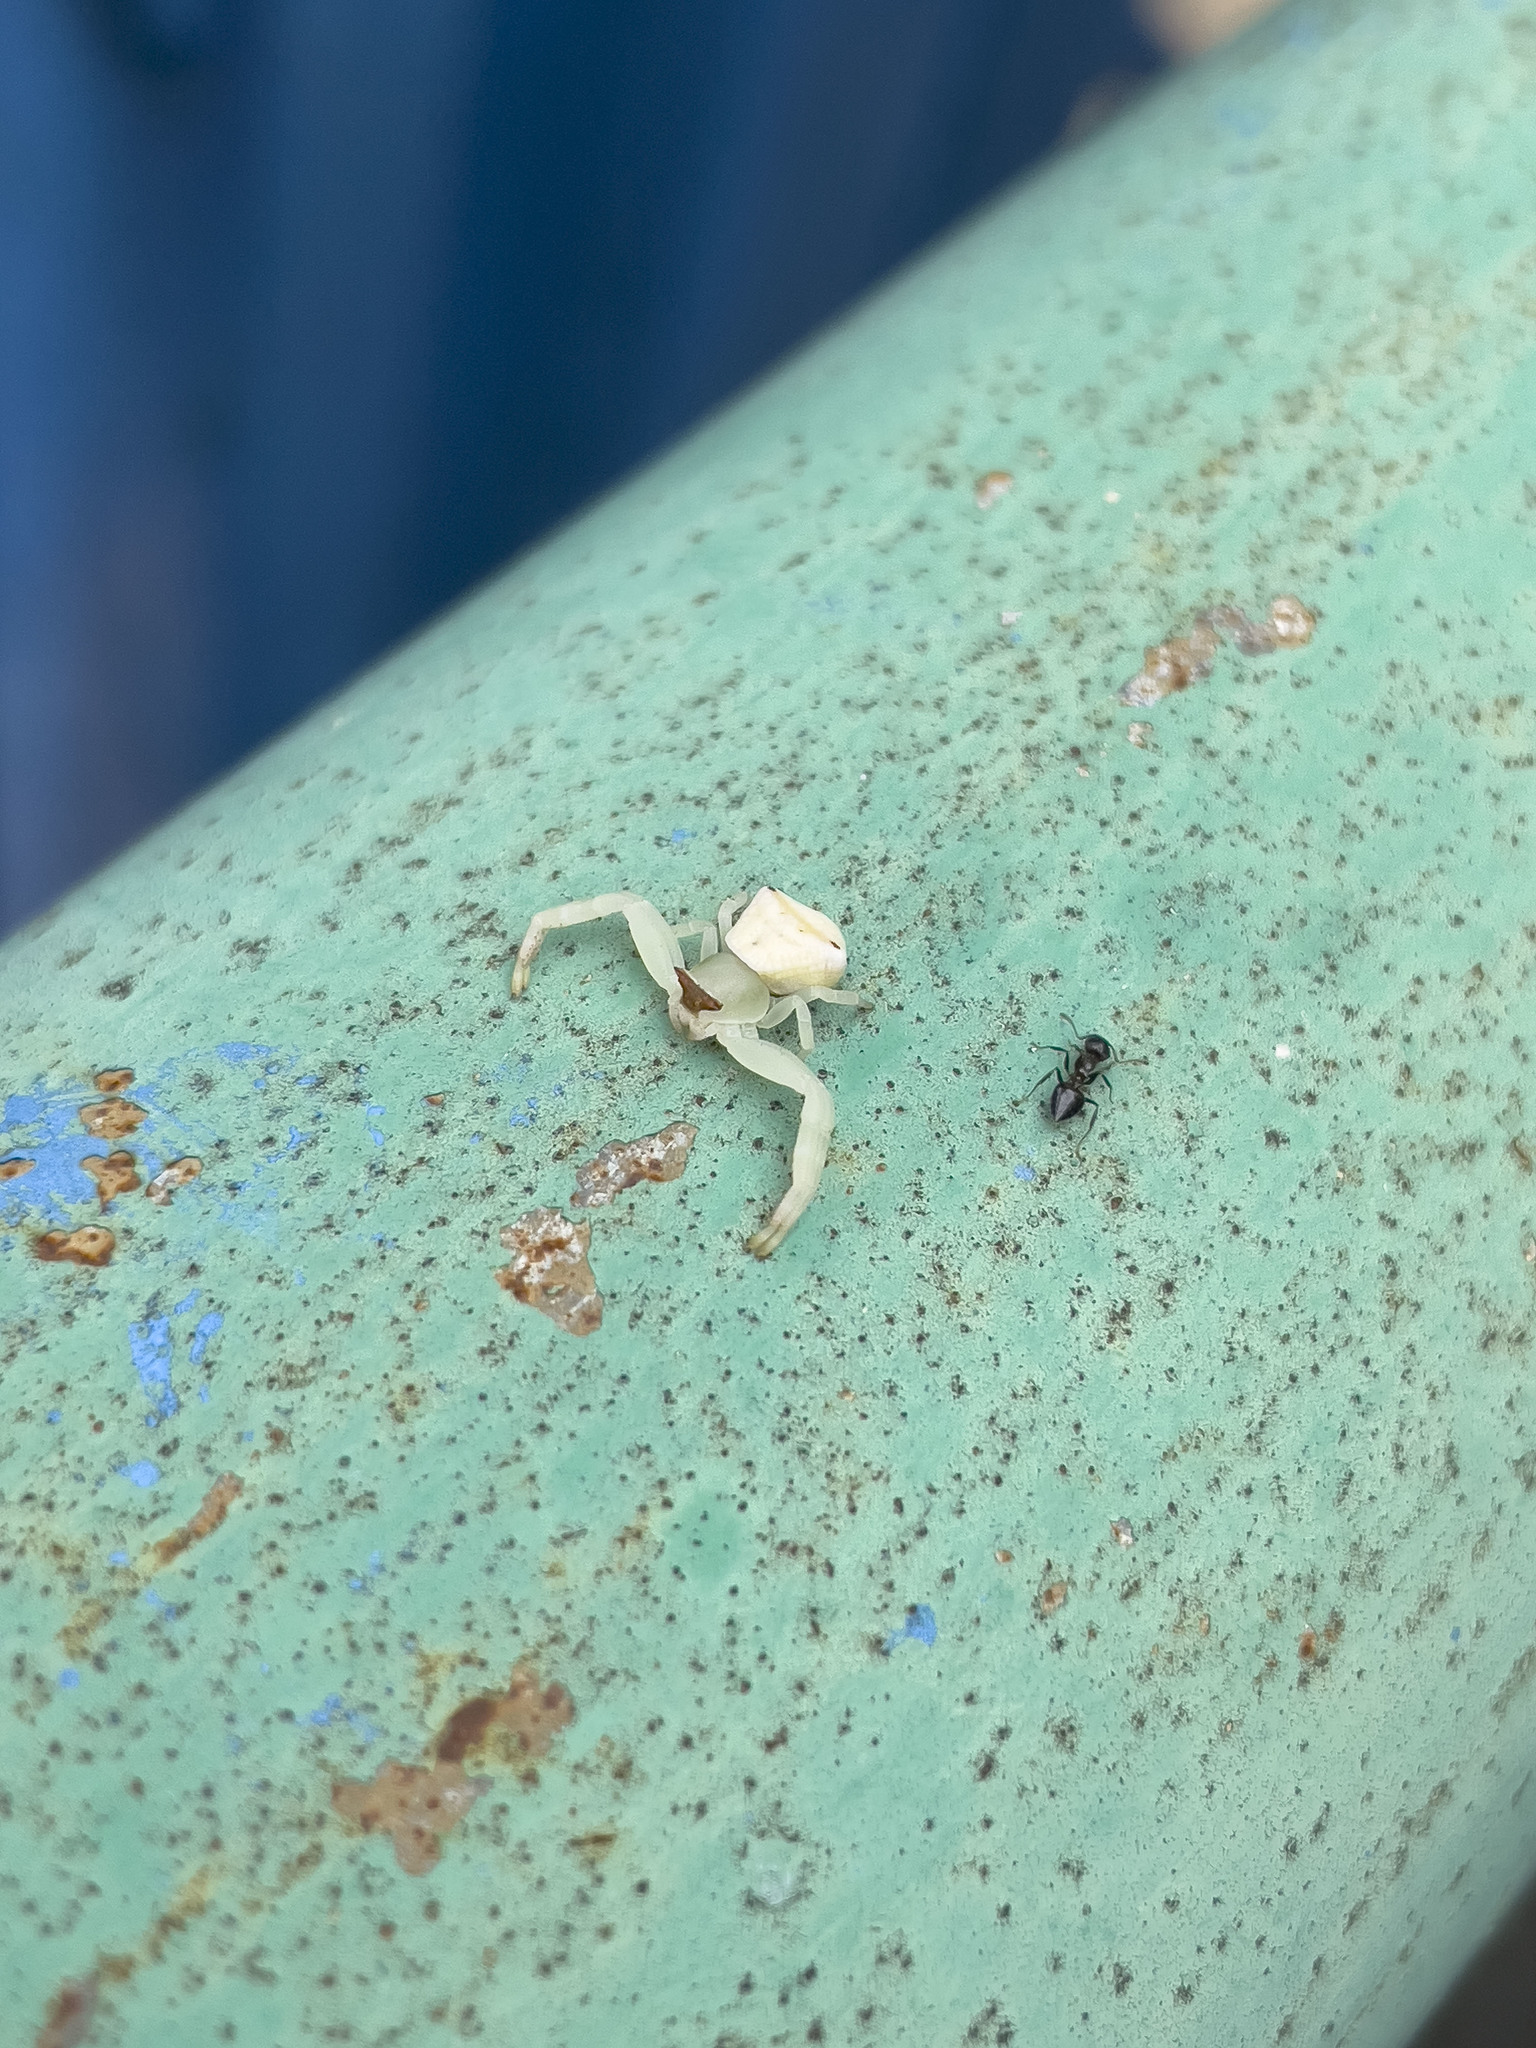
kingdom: Animalia
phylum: Arthropoda
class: Arachnida
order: Araneae
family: Thomisidae
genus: Thomisus
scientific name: Thomisus labefactus
